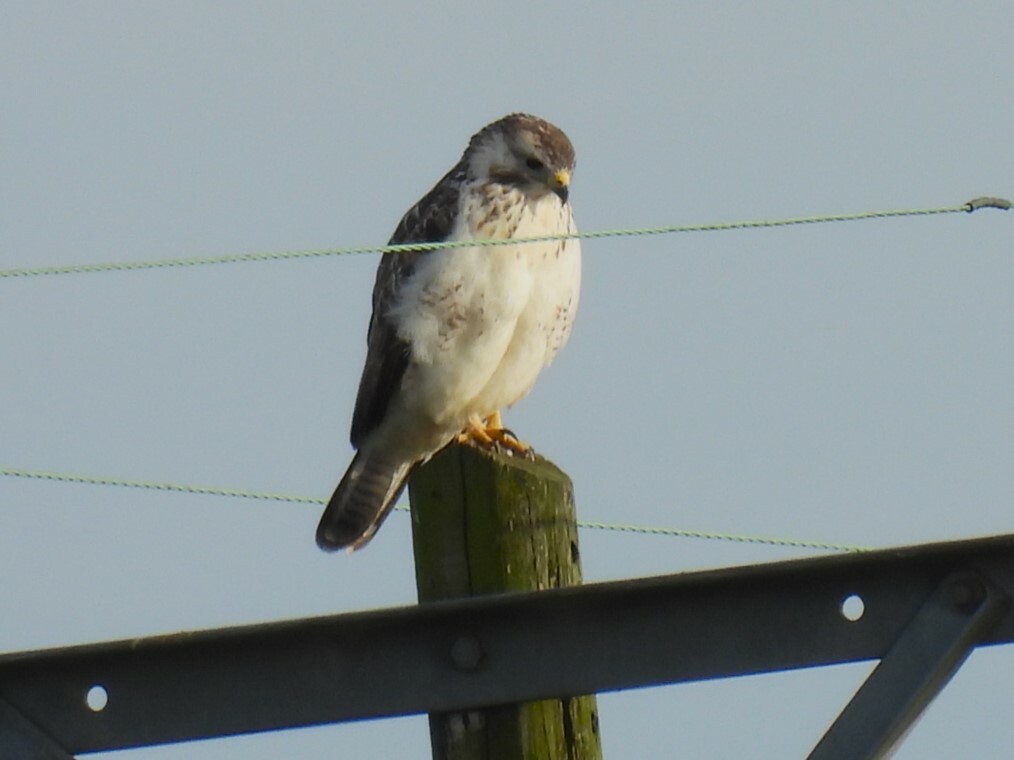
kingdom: Animalia
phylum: Chordata
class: Aves
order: Accipitriformes
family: Accipitridae
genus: Buteo
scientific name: Buteo buteo
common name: Common buzzard
